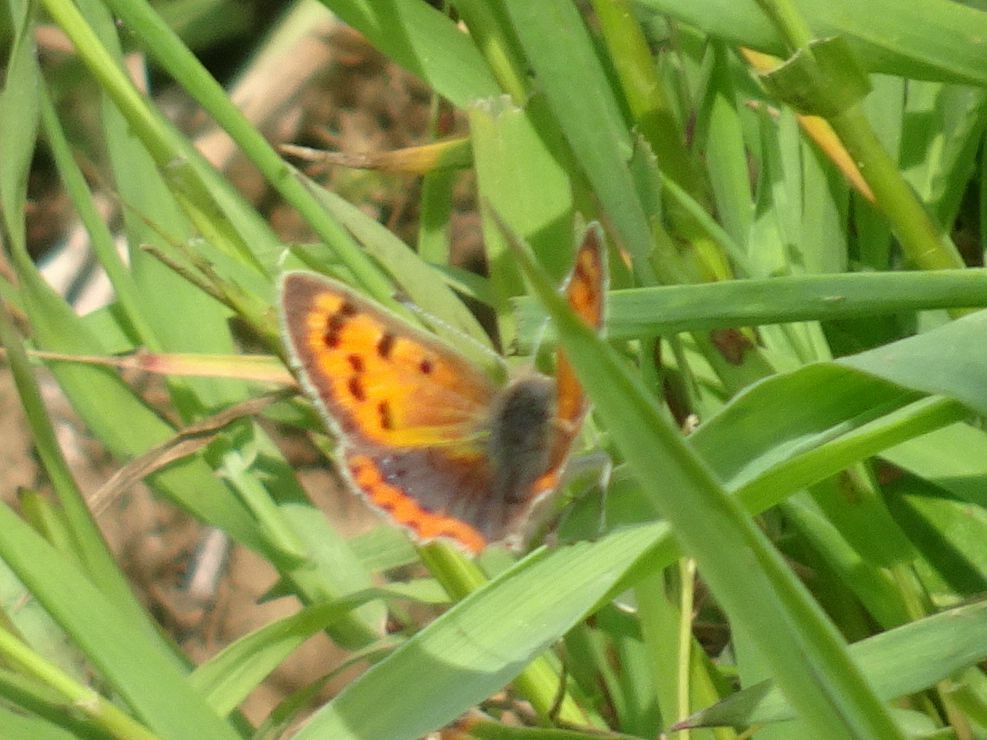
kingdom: Animalia
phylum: Arthropoda
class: Insecta
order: Lepidoptera
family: Lycaenidae
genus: Lycaena
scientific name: Lycaena phlaeas
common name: Small copper
